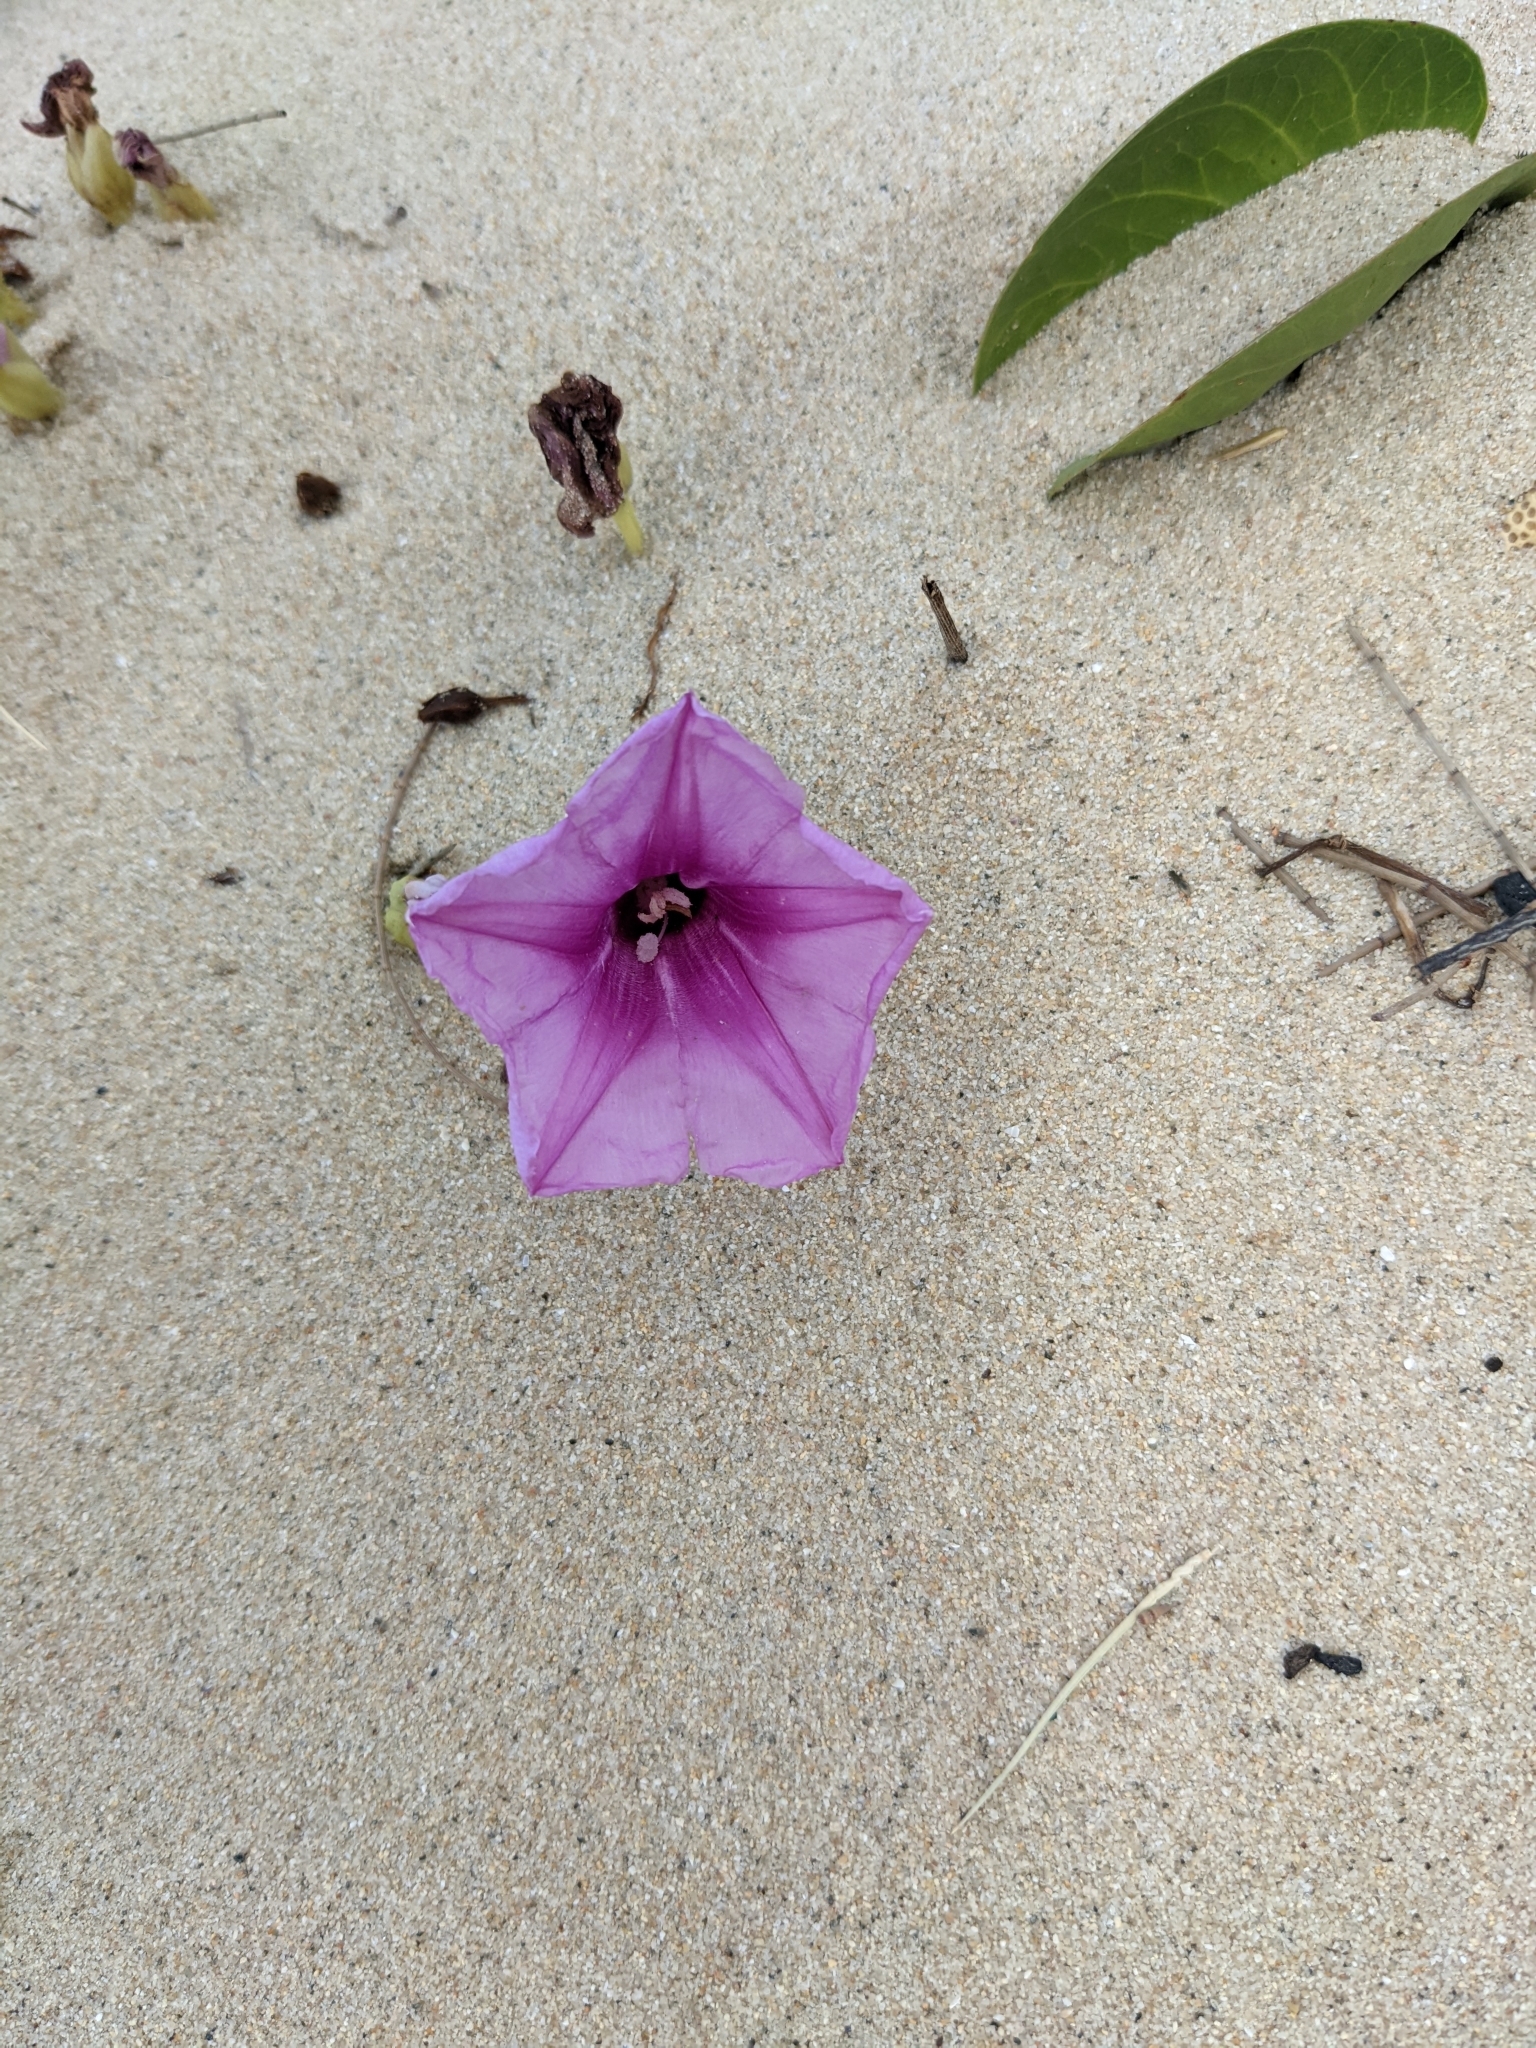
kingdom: Plantae
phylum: Tracheophyta
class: Magnoliopsida
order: Solanales
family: Convolvulaceae
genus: Ipomoea
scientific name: Ipomoea pes-caprae
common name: Beach morning glory
